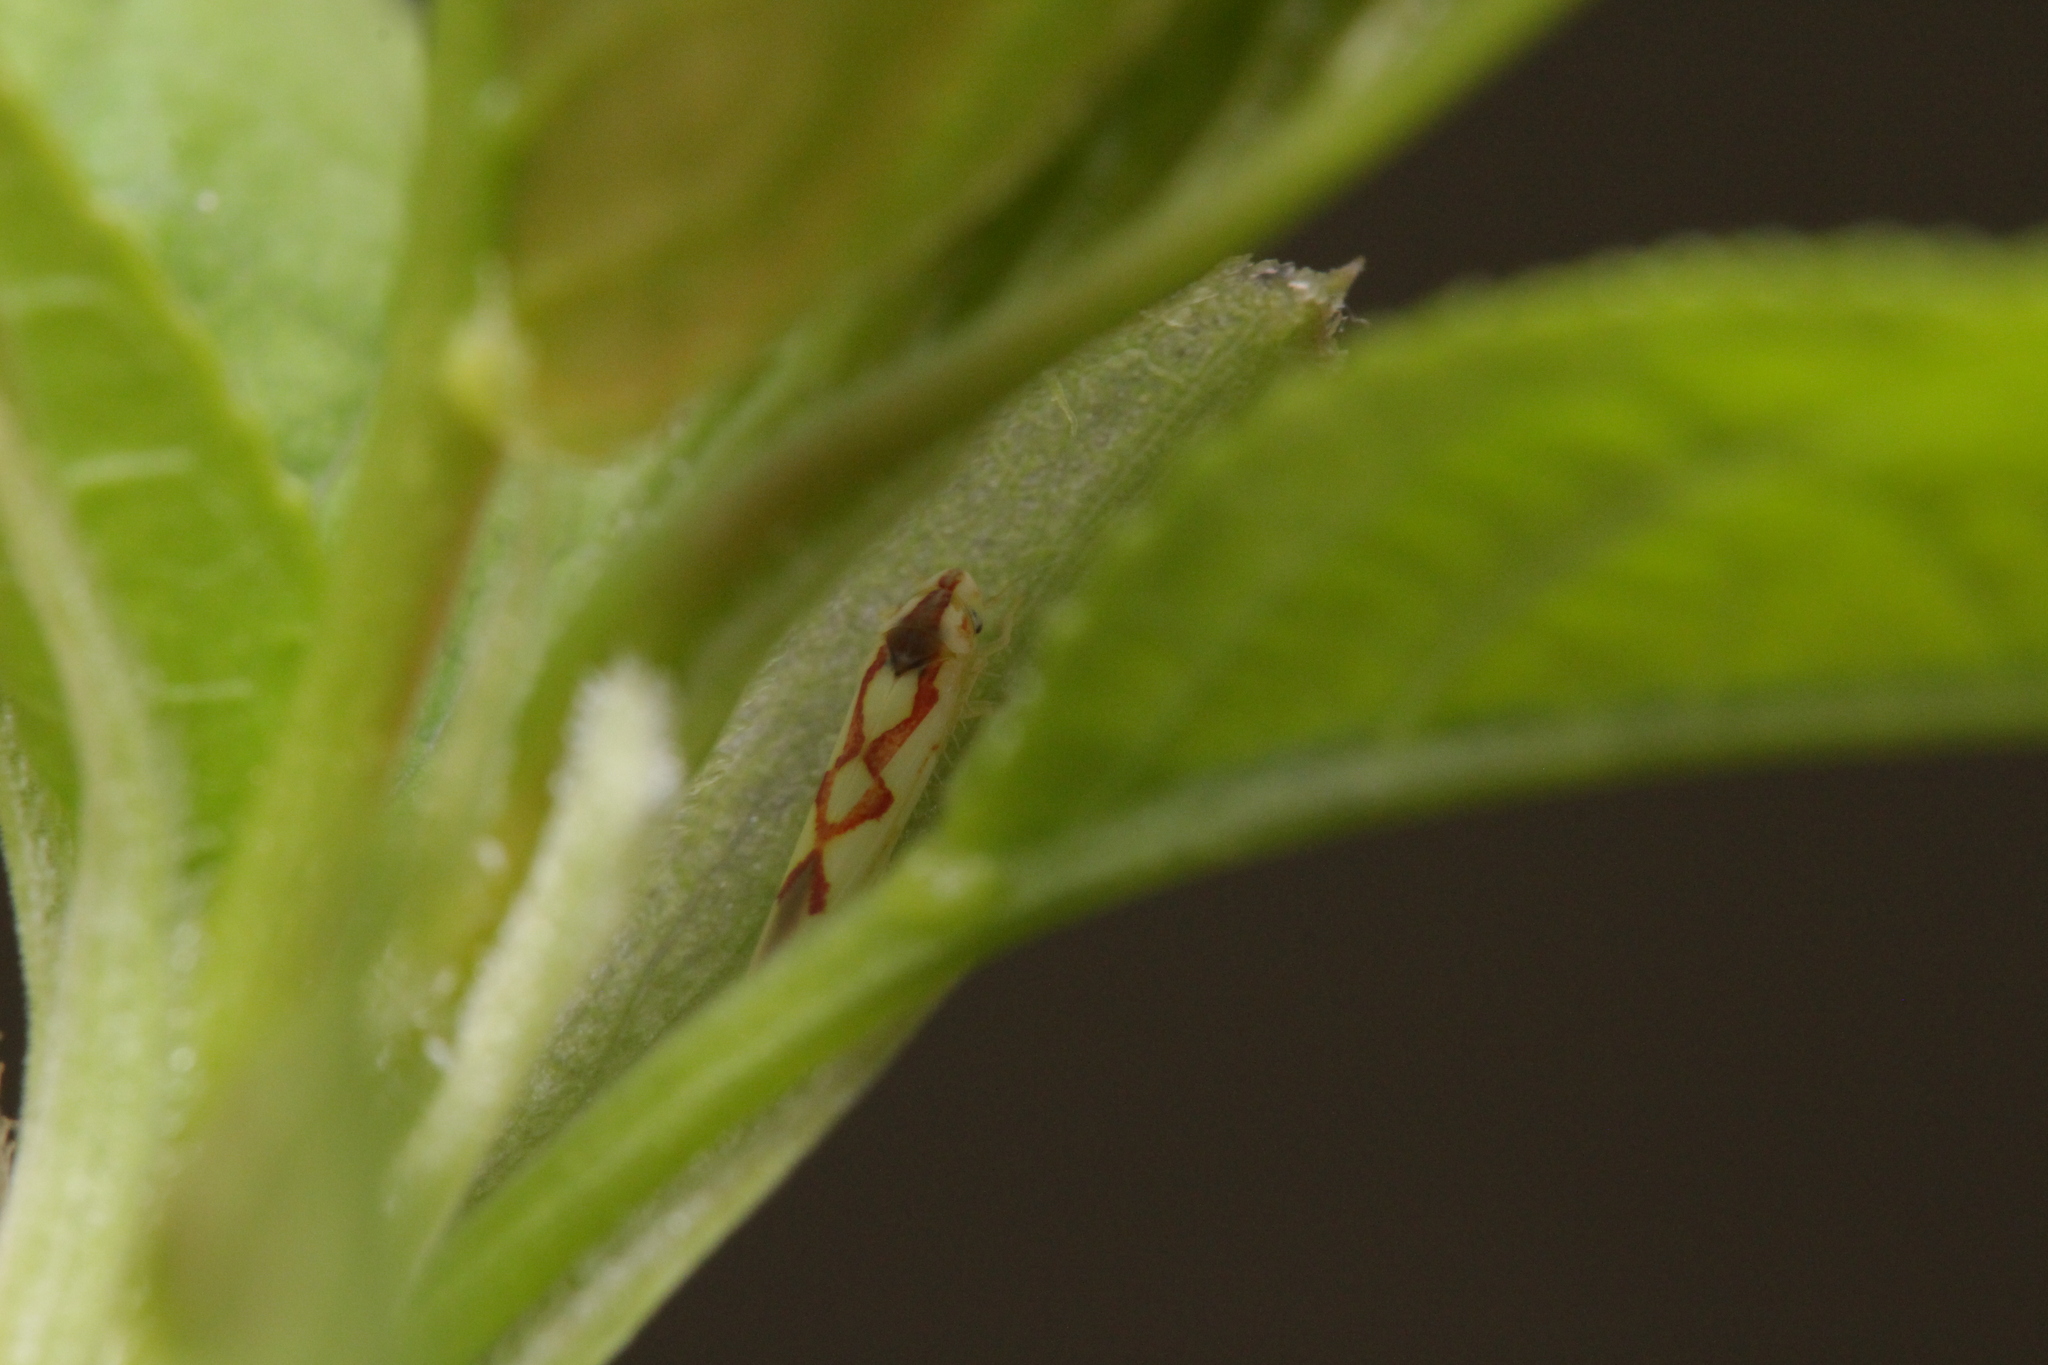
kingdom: Animalia
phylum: Arthropoda
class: Insecta
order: Hemiptera
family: Cicadellidae
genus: Zygina
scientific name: Zygina flammigera
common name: Leafhopper
